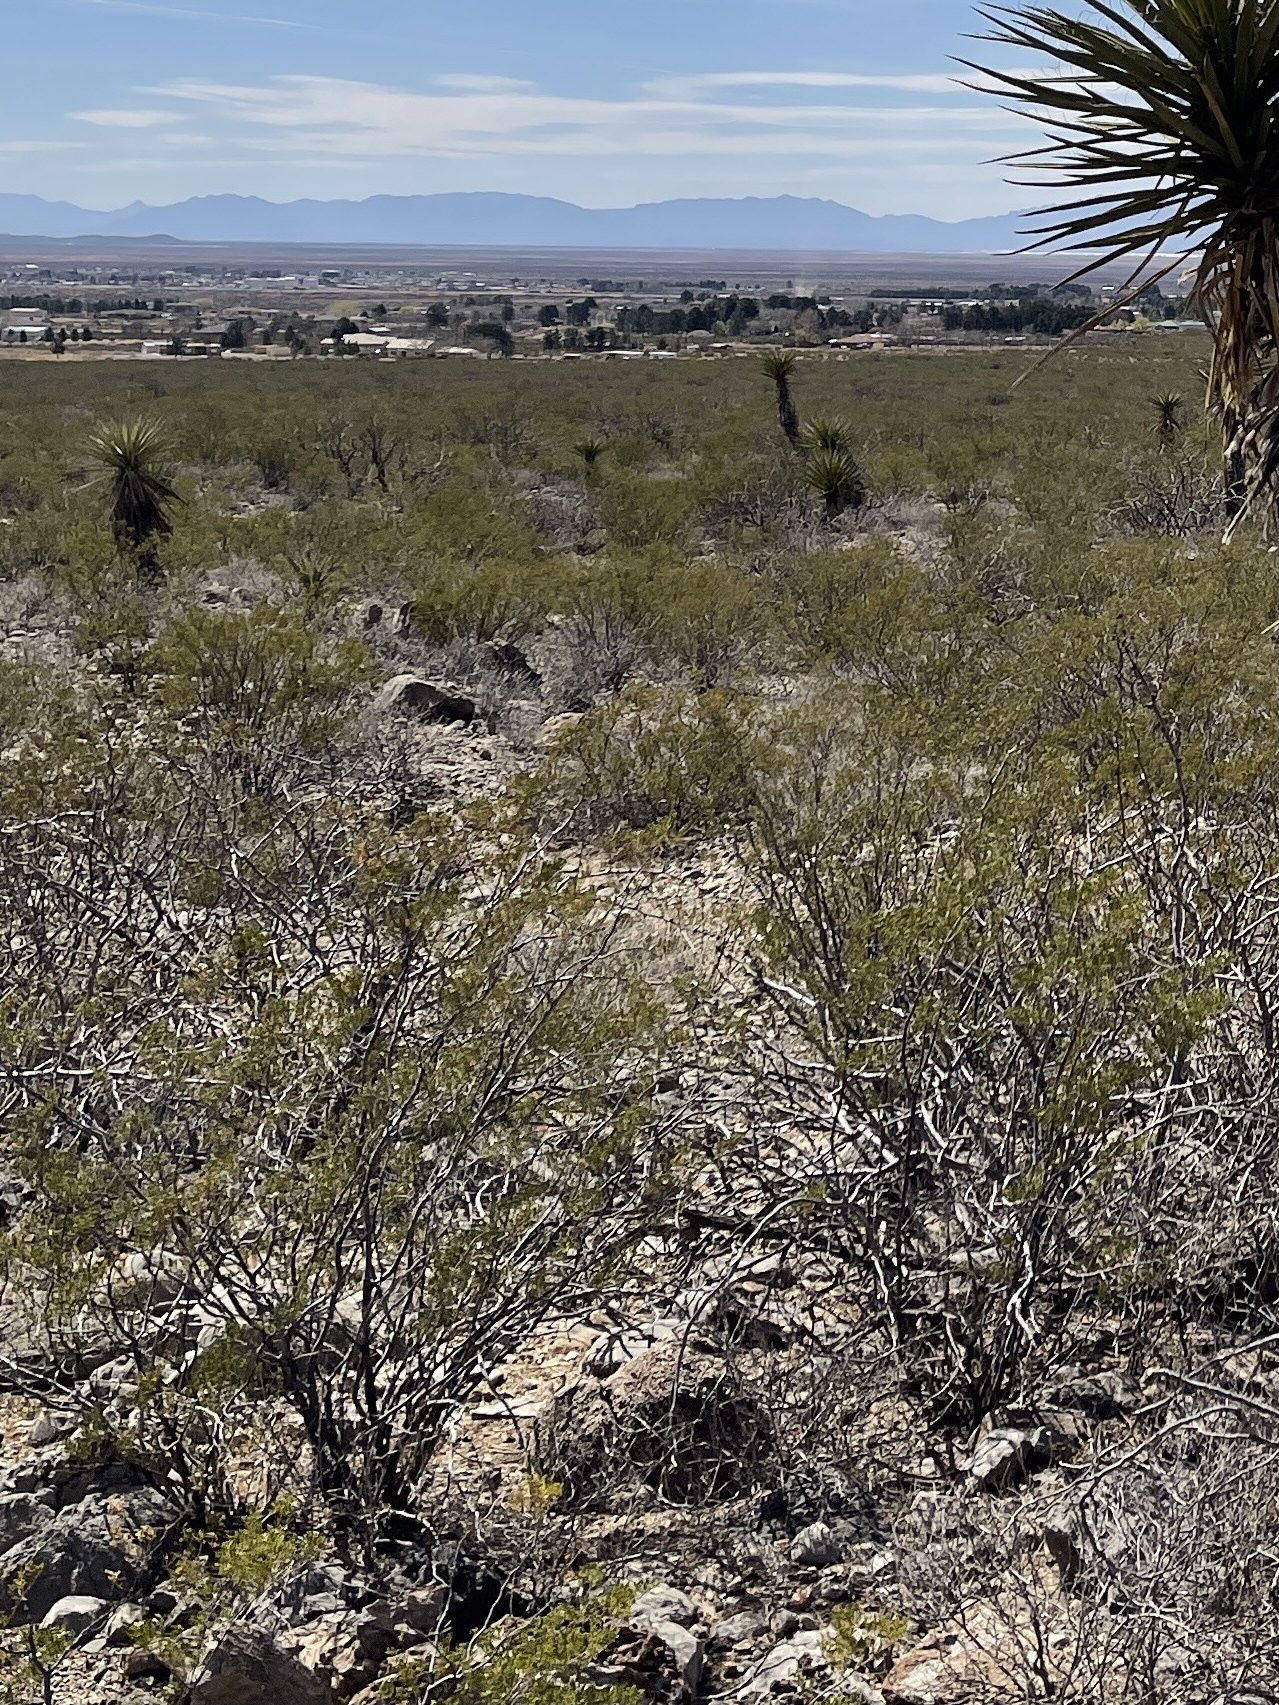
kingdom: Plantae
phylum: Tracheophyta
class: Magnoliopsida
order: Zygophyllales
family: Zygophyllaceae
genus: Larrea
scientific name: Larrea tridentata
